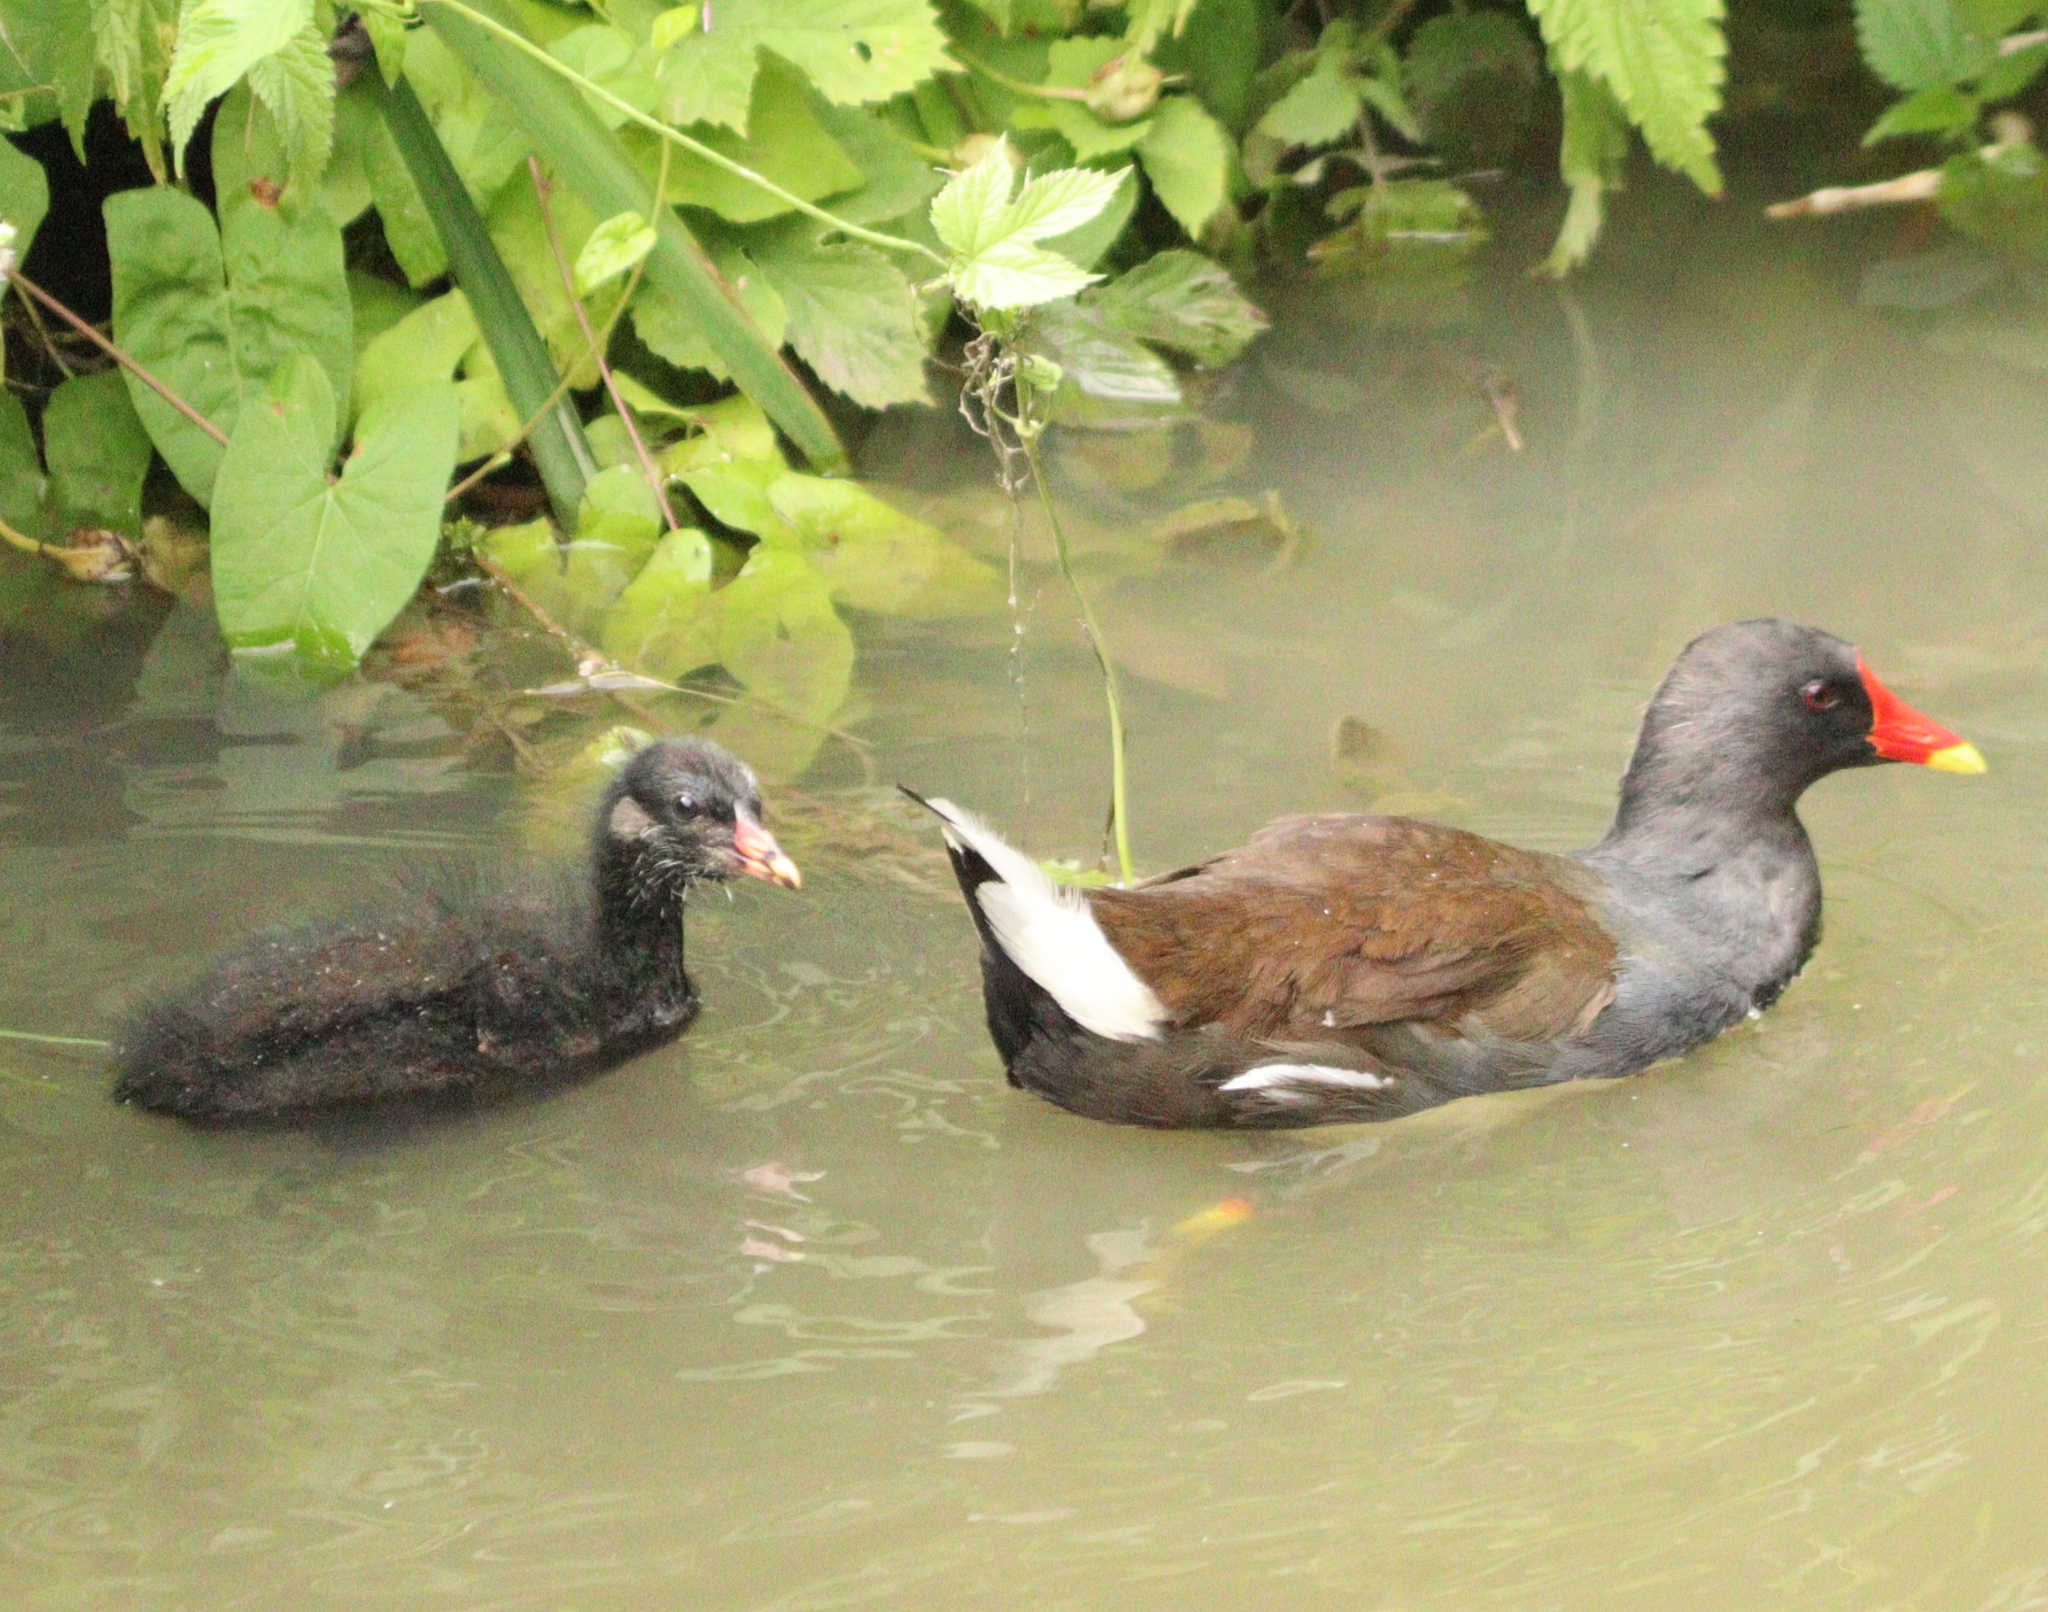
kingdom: Animalia
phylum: Chordata
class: Aves
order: Gruiformes
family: Rallidae
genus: Gallinula
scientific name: Gallinula chloropus
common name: Common moorhen
